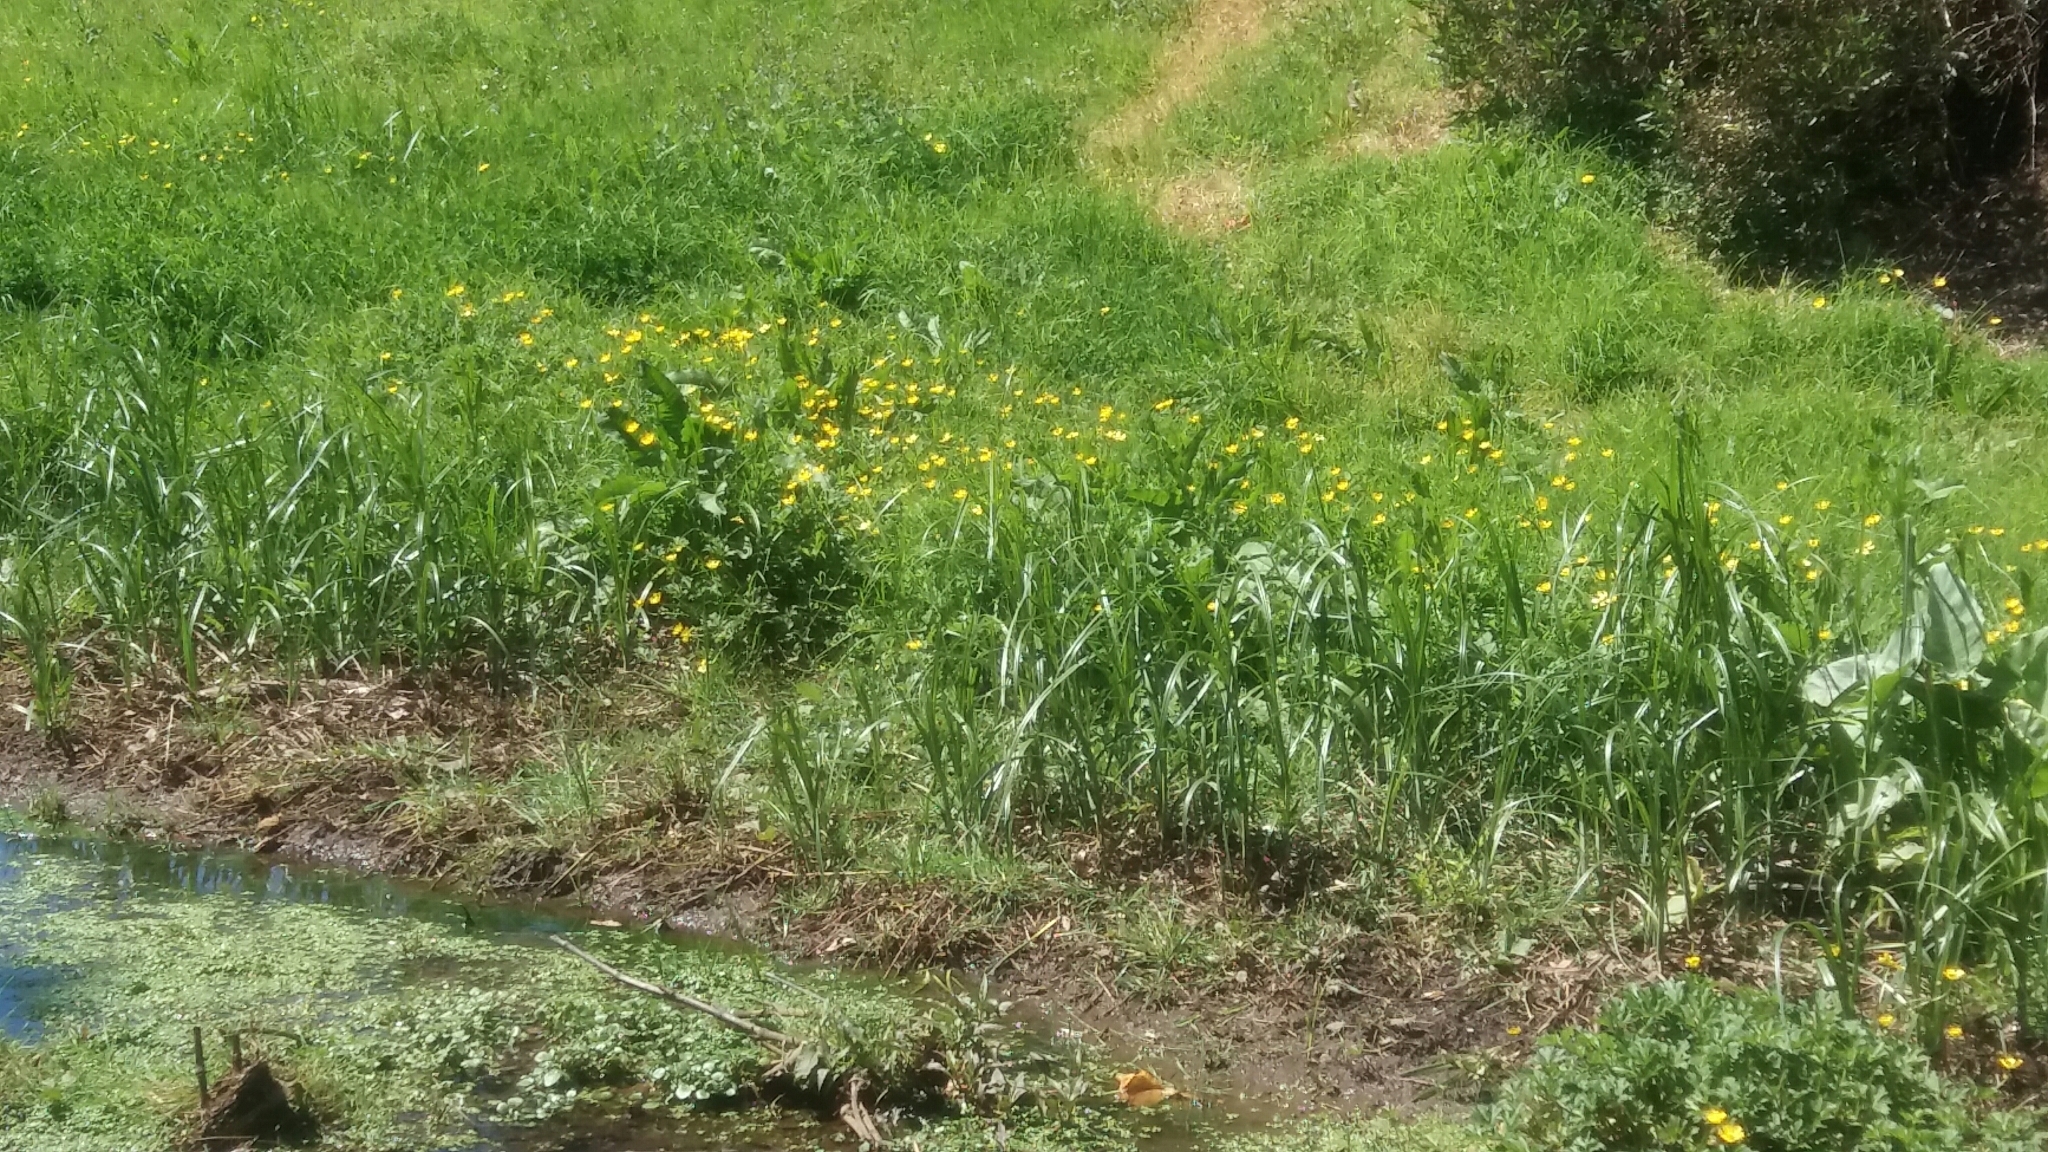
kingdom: Plantae
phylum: Tracheophyta
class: Magnoliopsida
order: Ranunculales
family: Ranunculaceae
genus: Ranunculus
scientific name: Ranunculus repens
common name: Creeping buttercup
